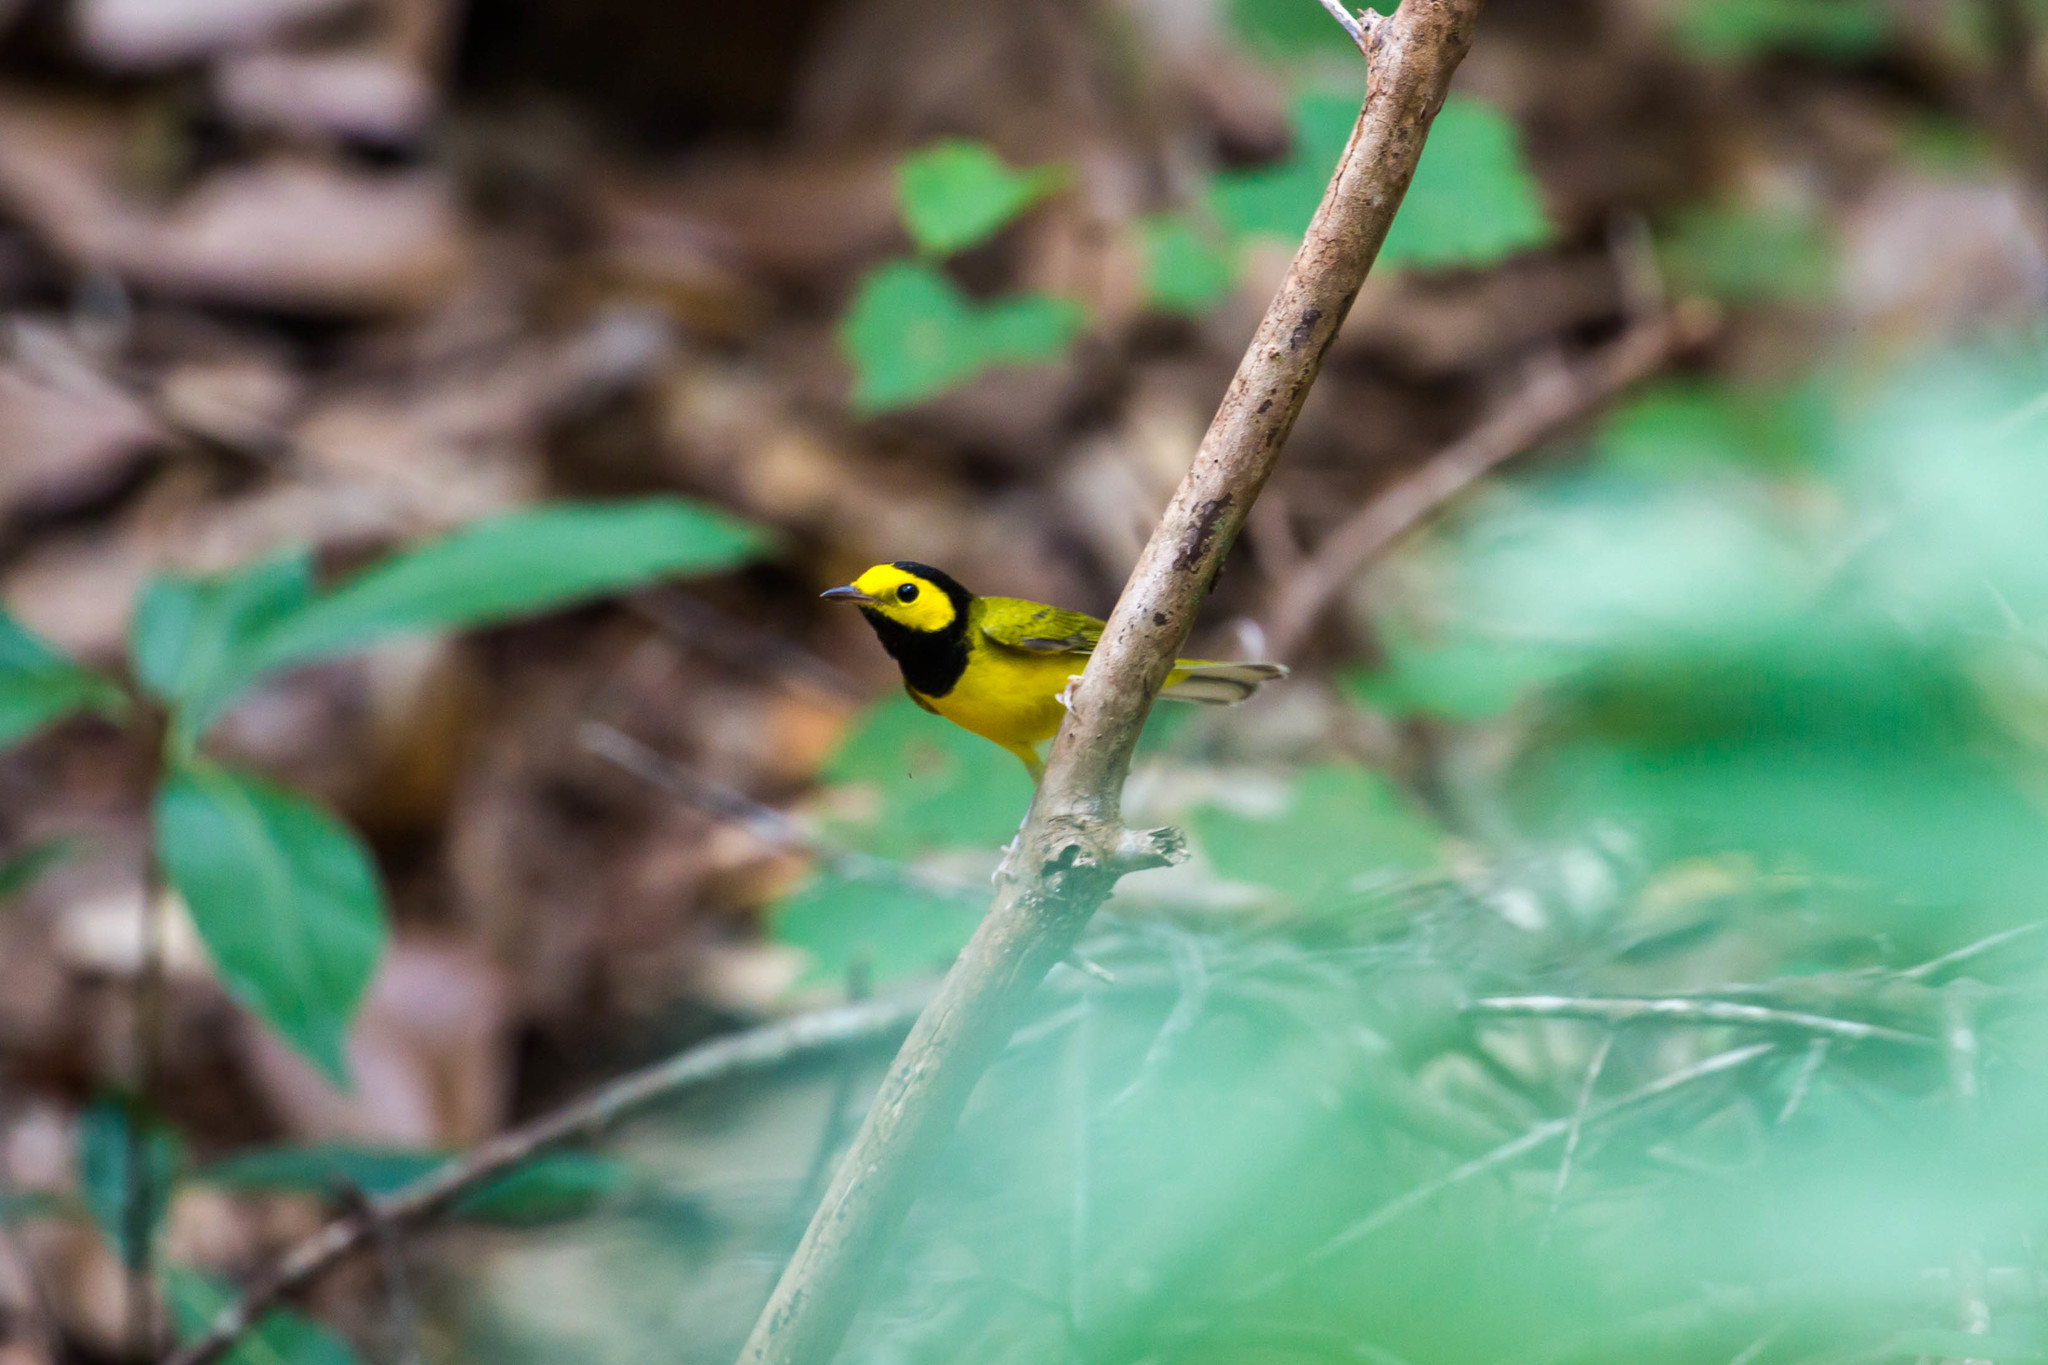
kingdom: Animalia
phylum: Chordata
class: Aves
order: Passeriformes
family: Parulidae
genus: Setophaga
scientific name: Setophaga citrina
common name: Hooded warbler
